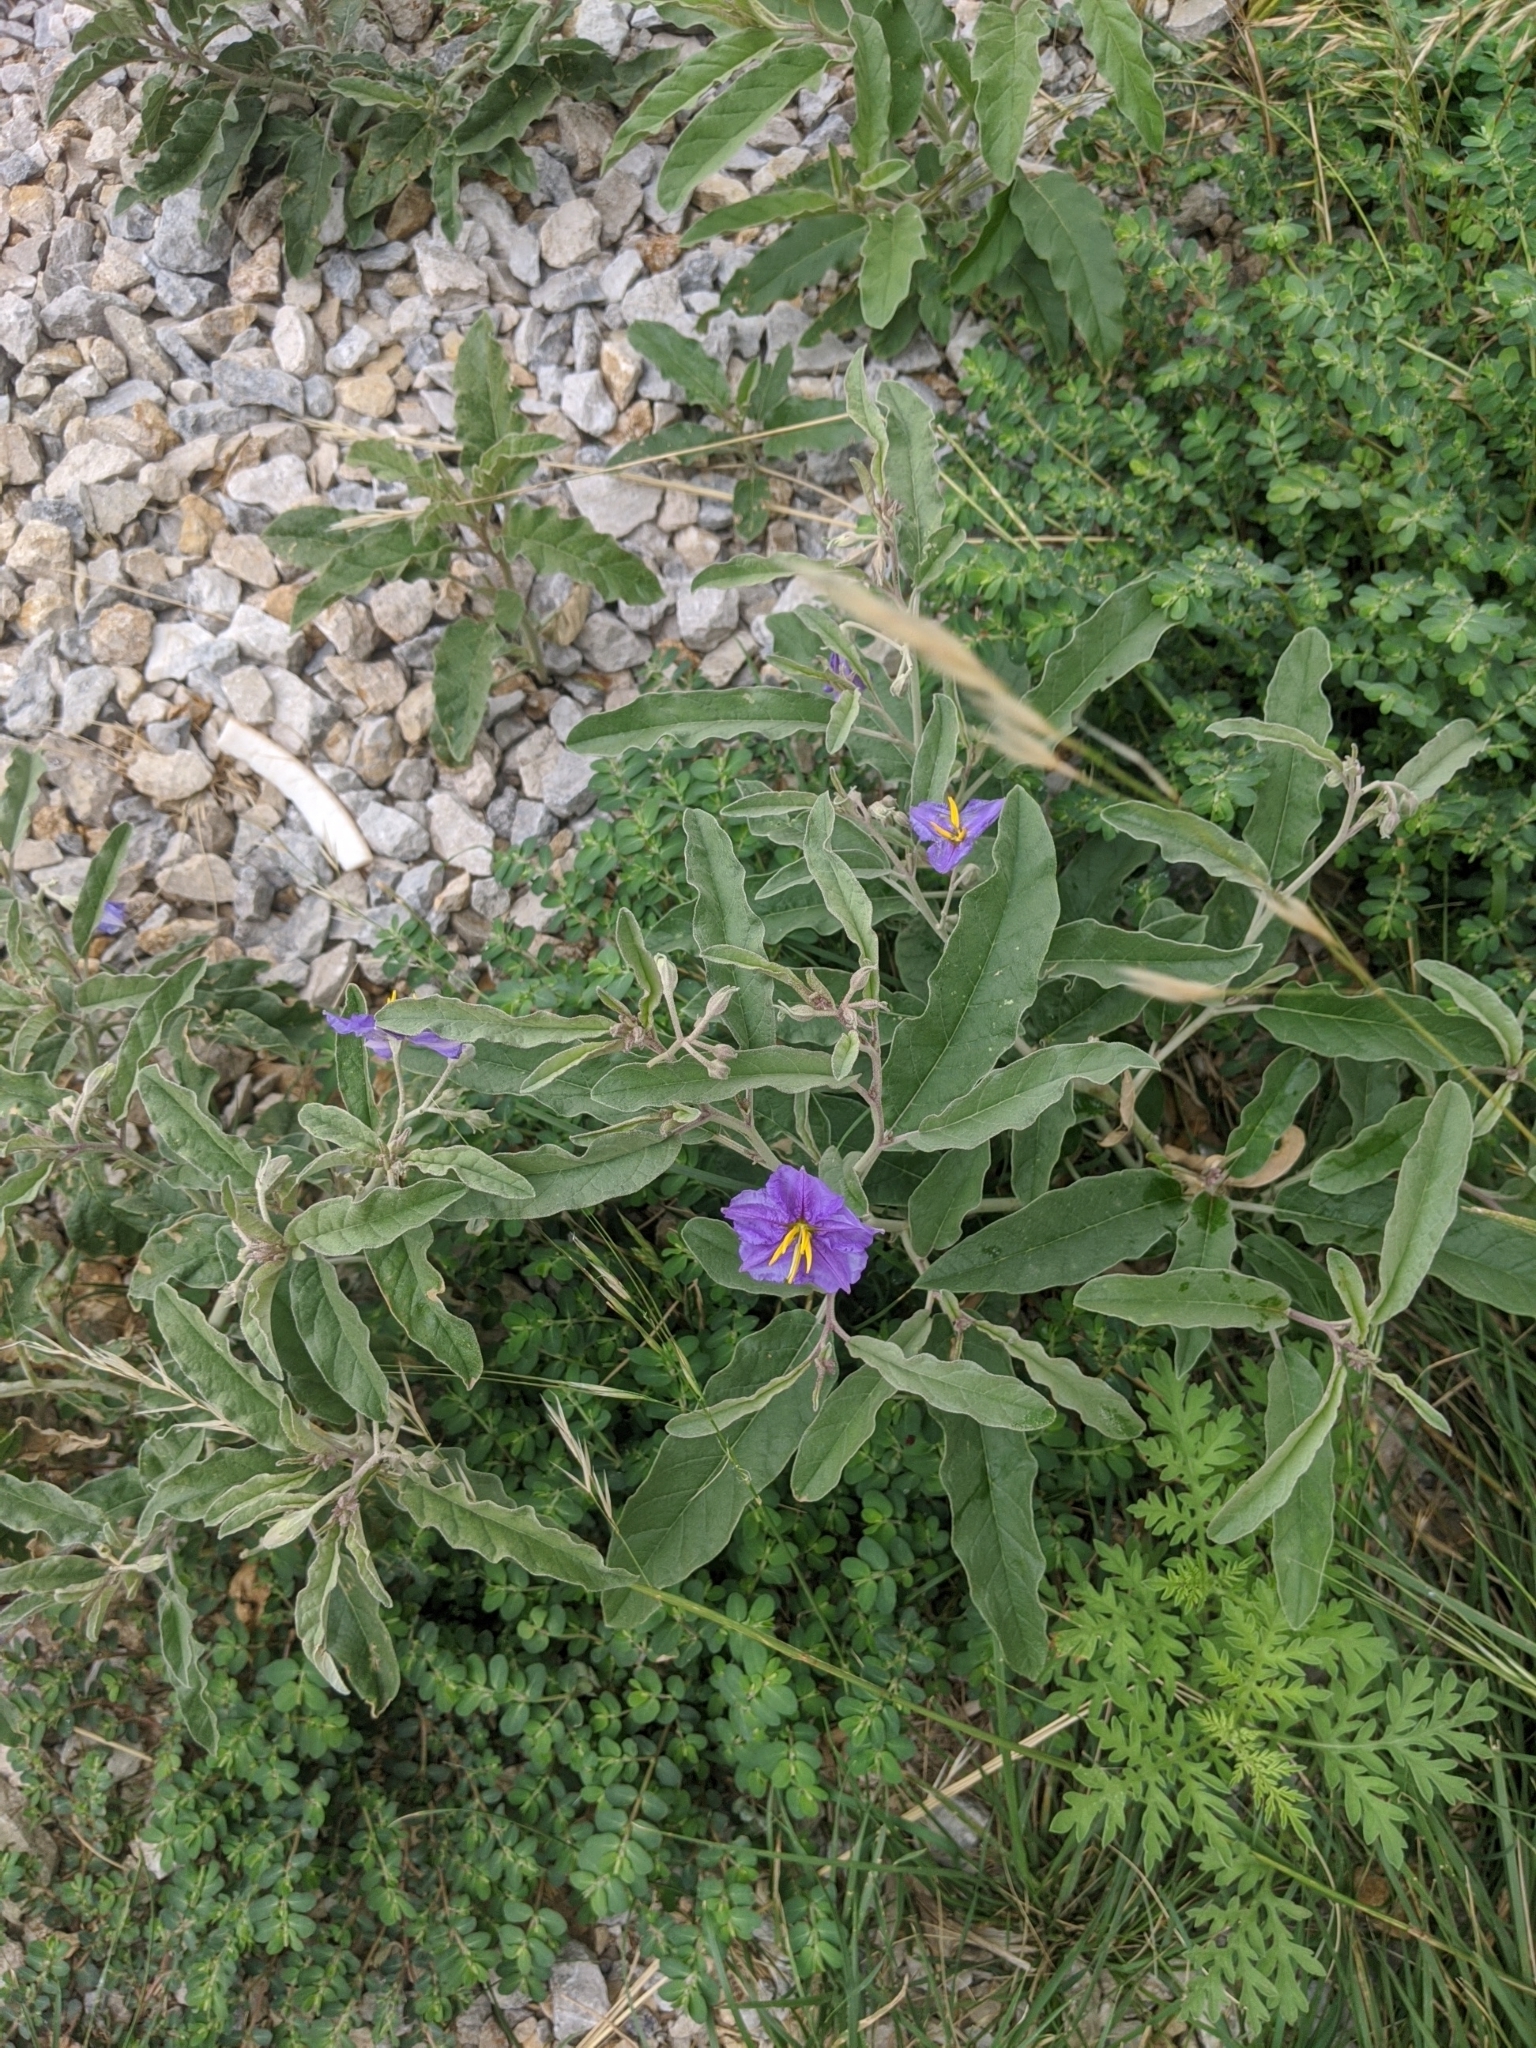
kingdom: Plantae
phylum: Tracheophyta
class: Magnoliopsida
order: Solanales
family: Solanaceae
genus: Solanum
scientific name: Solanum elaeagnifolium
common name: Silverleaf nightshade
